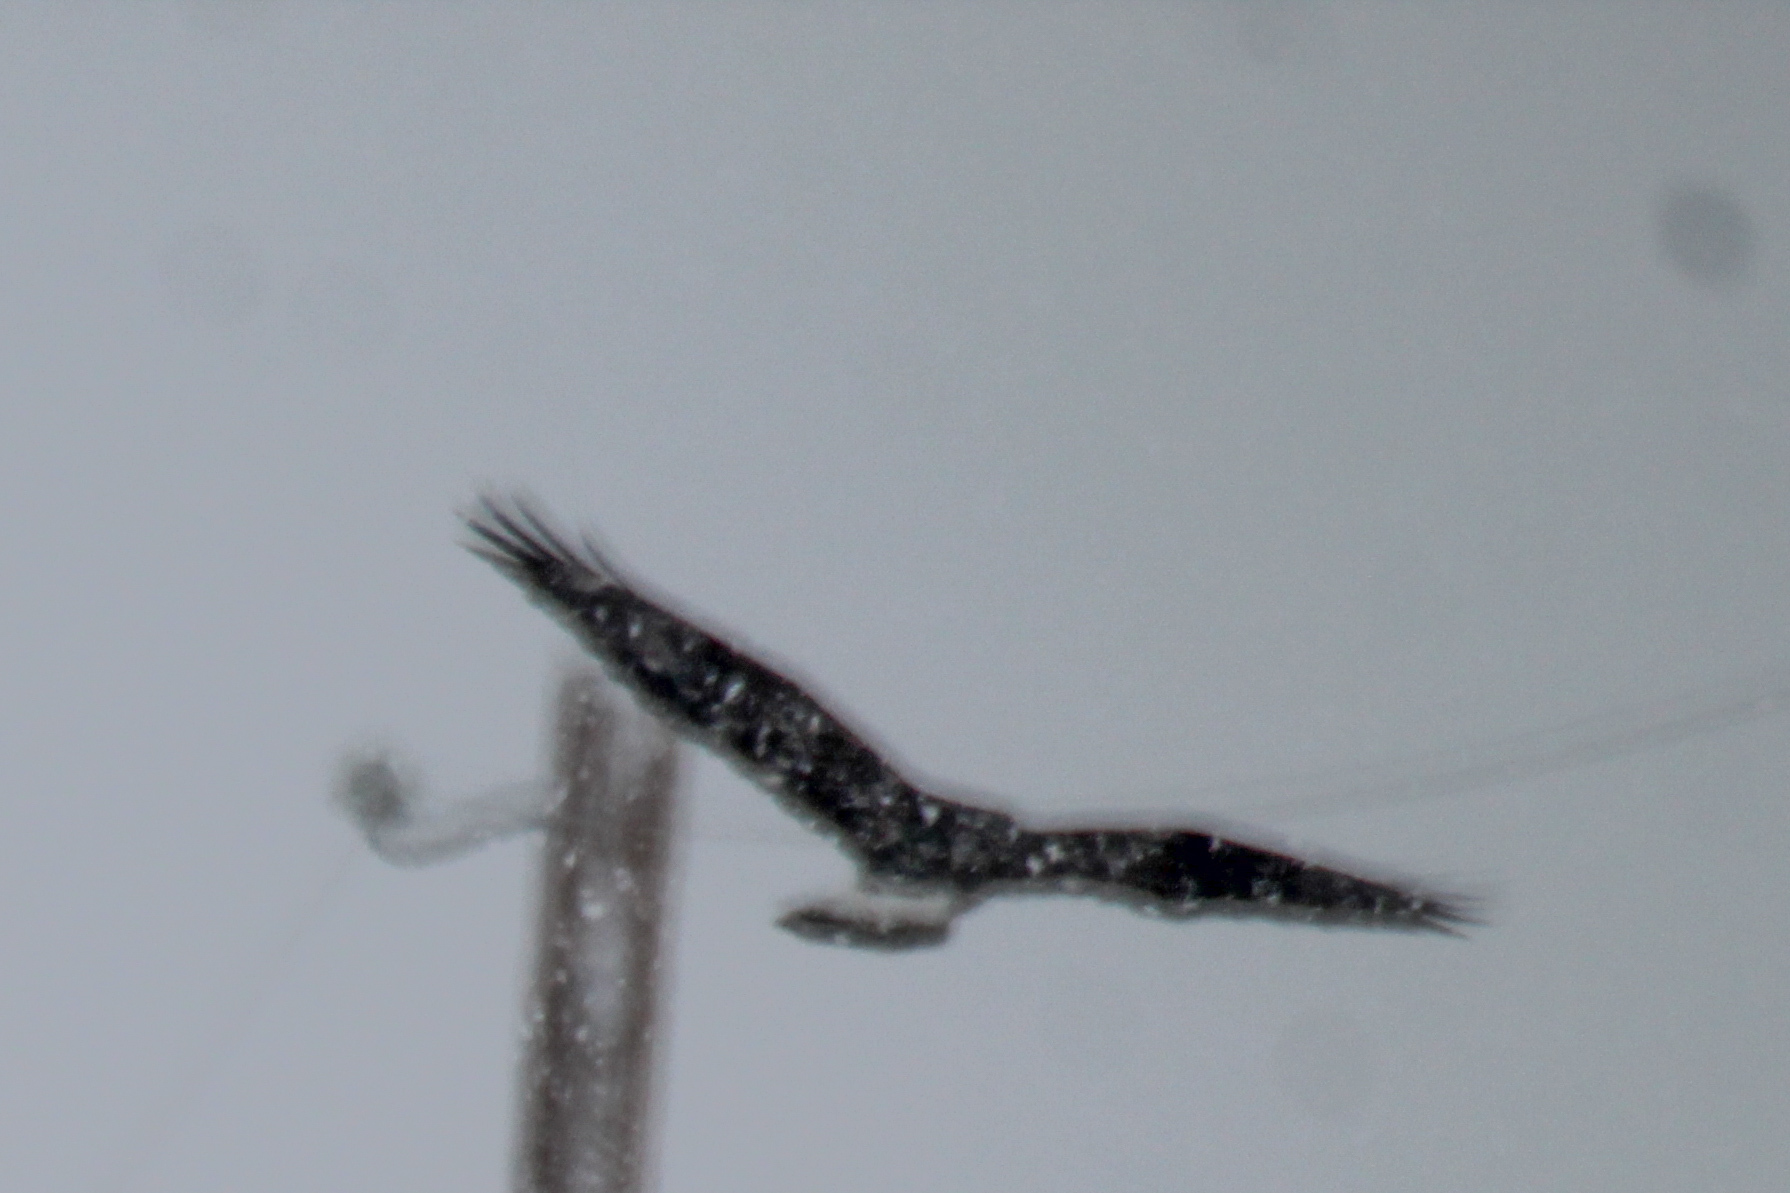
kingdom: Animalia
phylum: Chordata
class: Aves
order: Accipitriformes
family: Accipitridae
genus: Buteo
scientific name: Buteo lagopus
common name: Rough-legged buzzard
